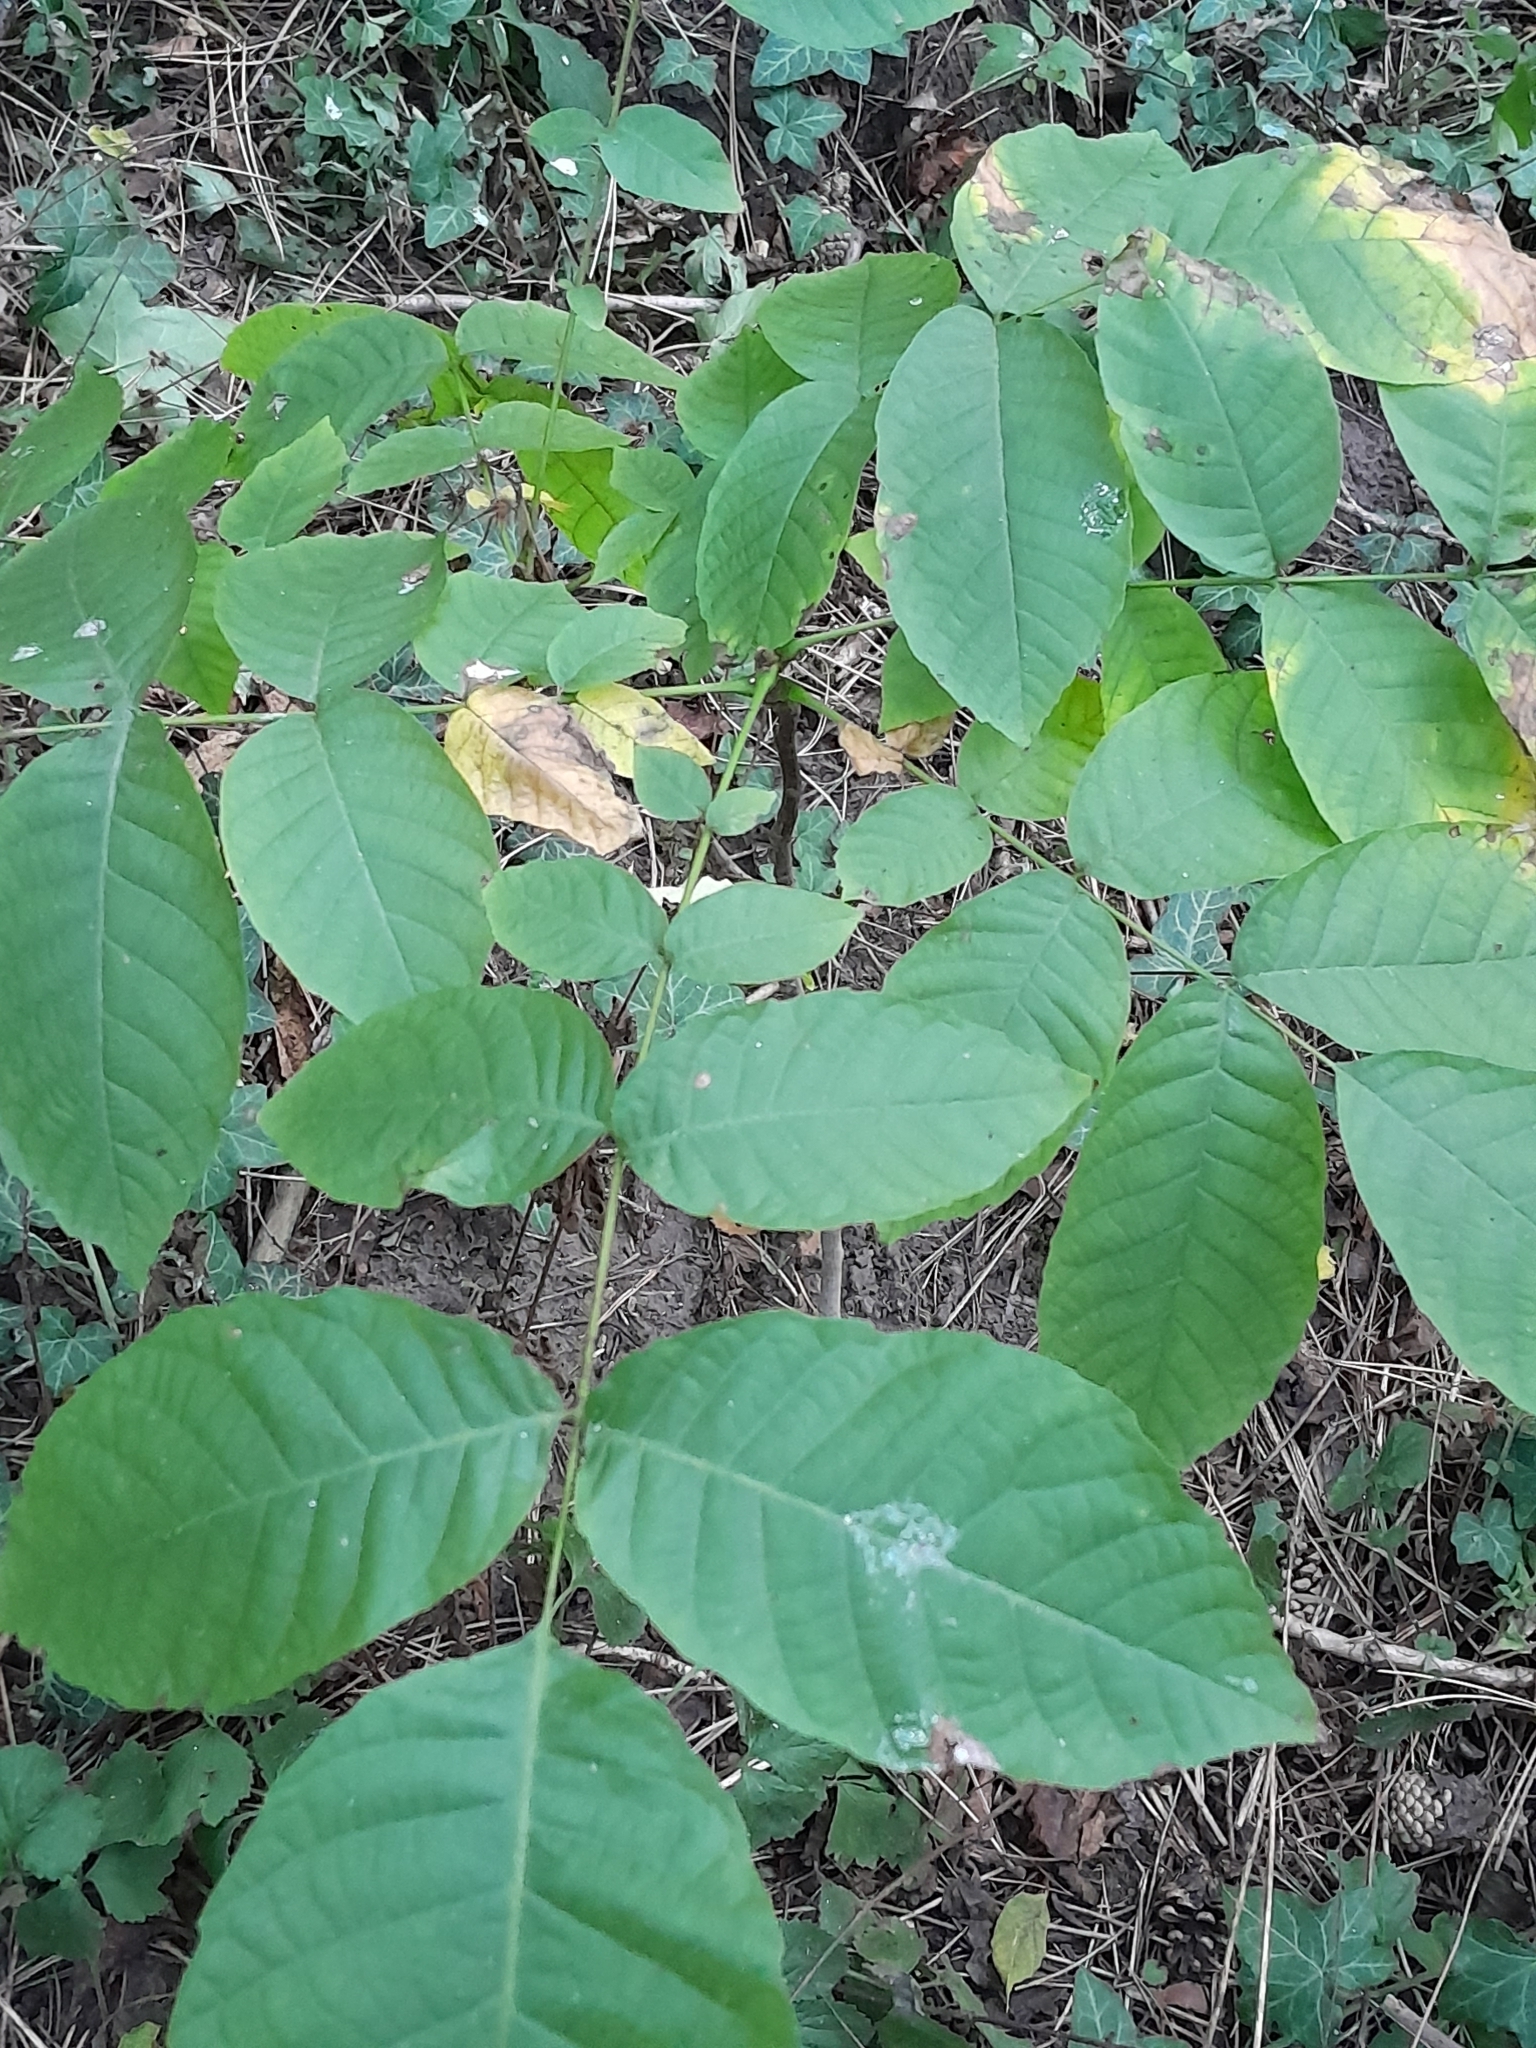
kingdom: Plantae
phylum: Tracheophyta
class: Magnoliopsida
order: Fagales
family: Juglandaceae
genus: Juglans
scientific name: Juglans regia
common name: Walnut
